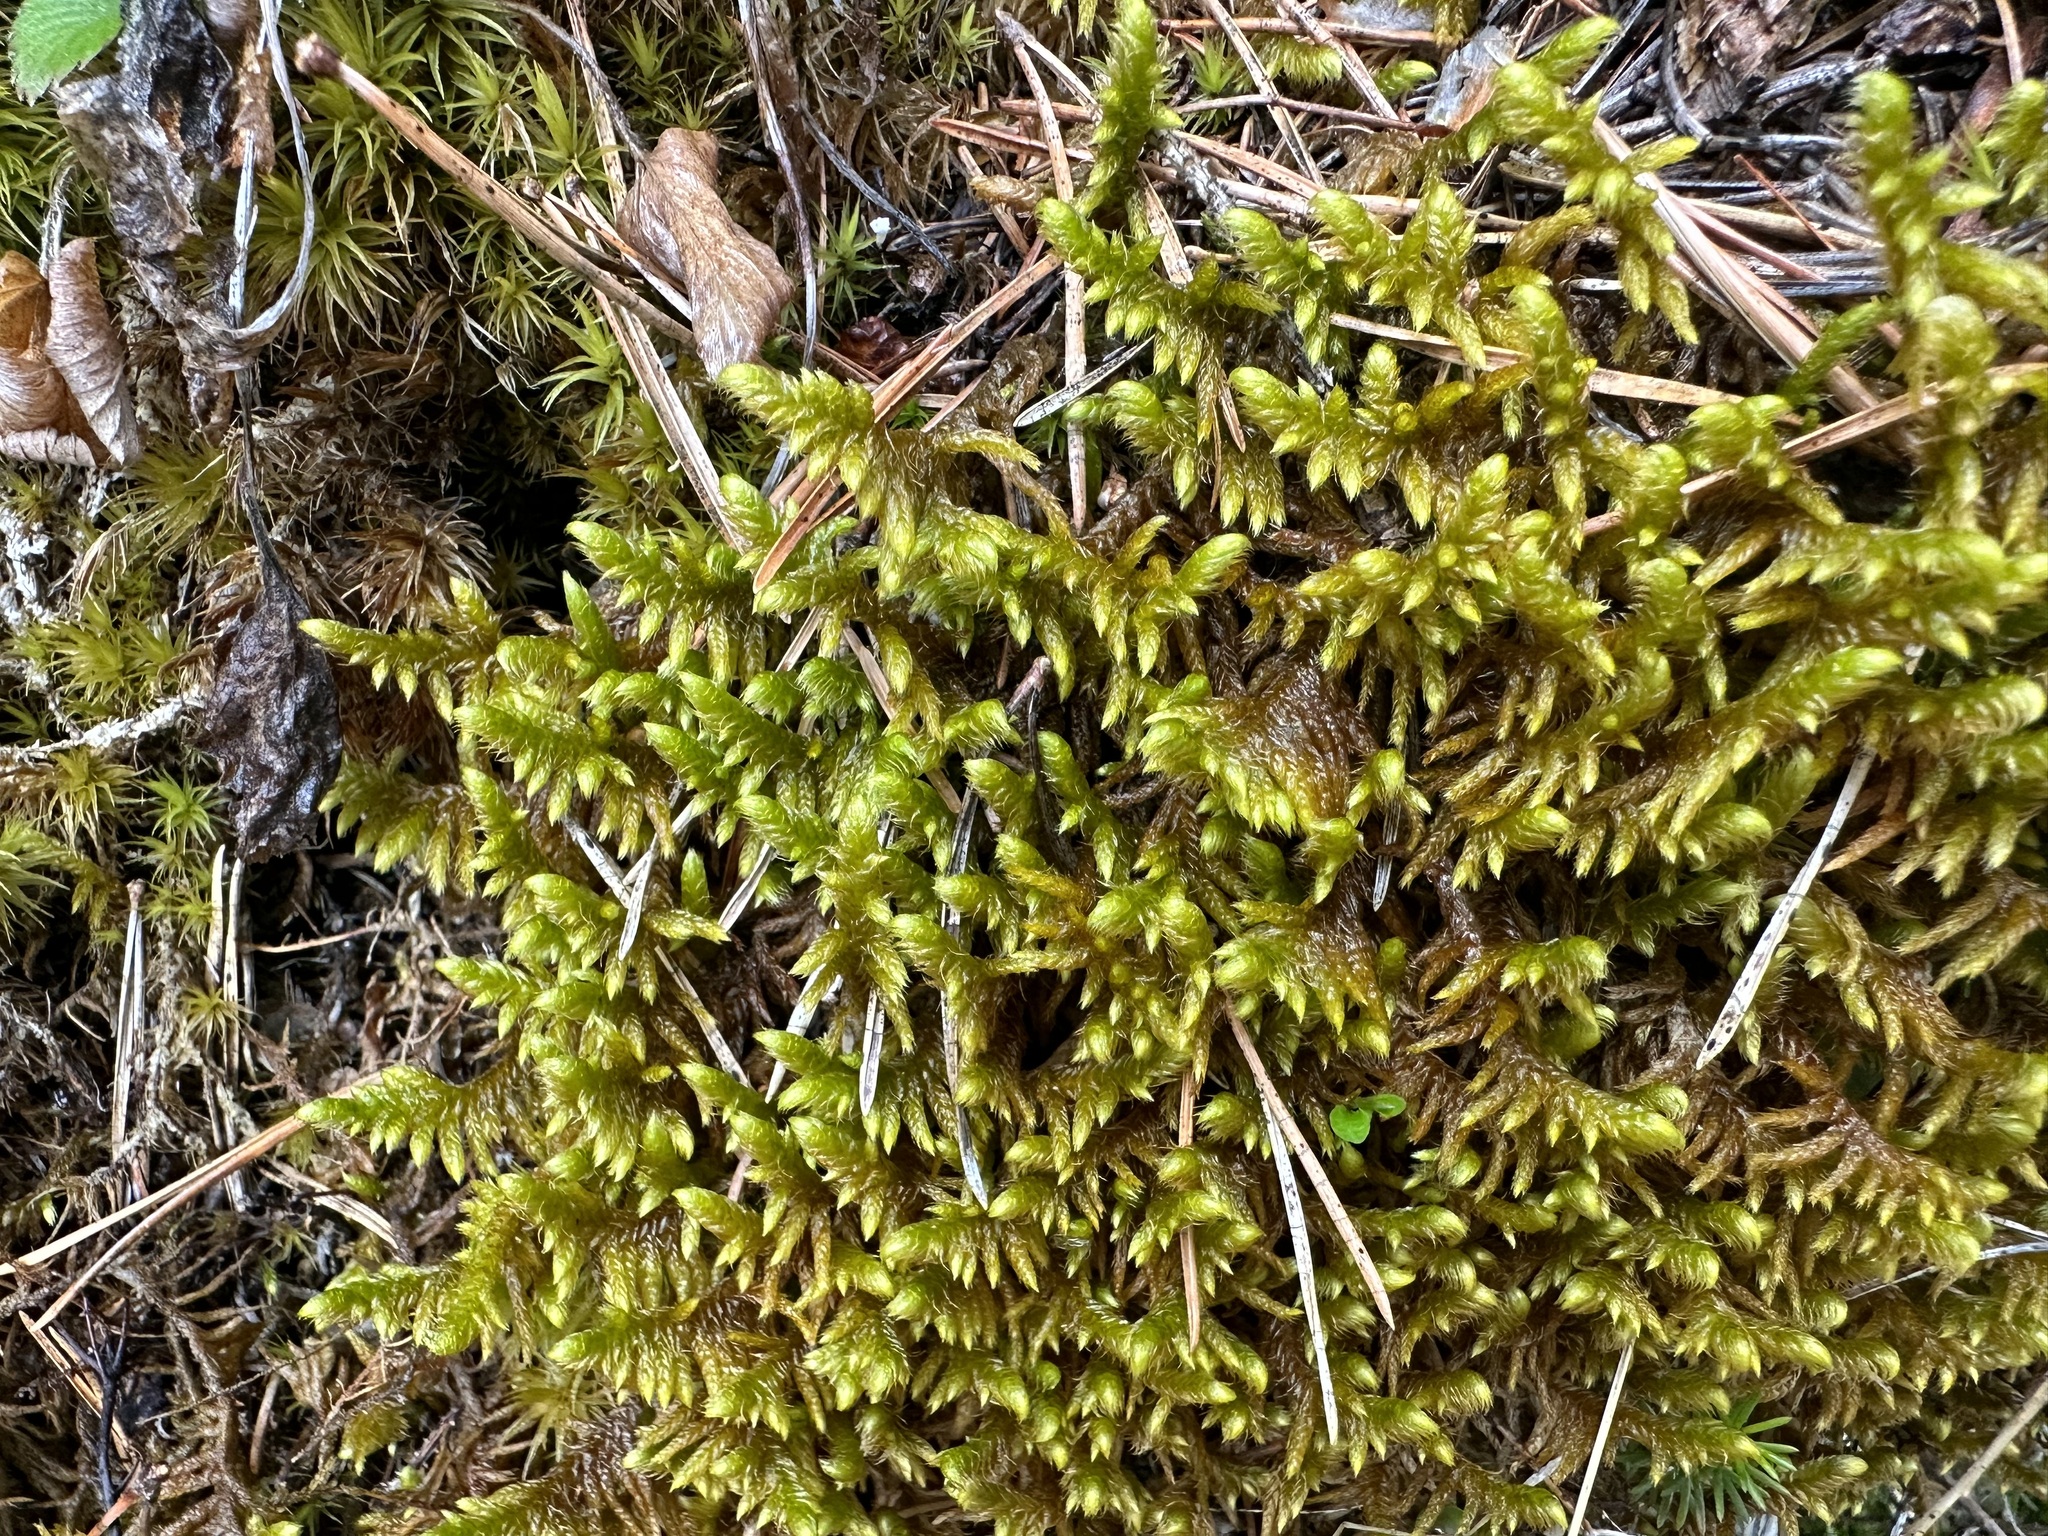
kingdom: Plantae
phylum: Bryophyta
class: Bryopsida
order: Hypnales
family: Rhytidiaceae
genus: Rhytidium
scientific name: Rhytidium rugosum
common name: Wrinkle-leaved moss
